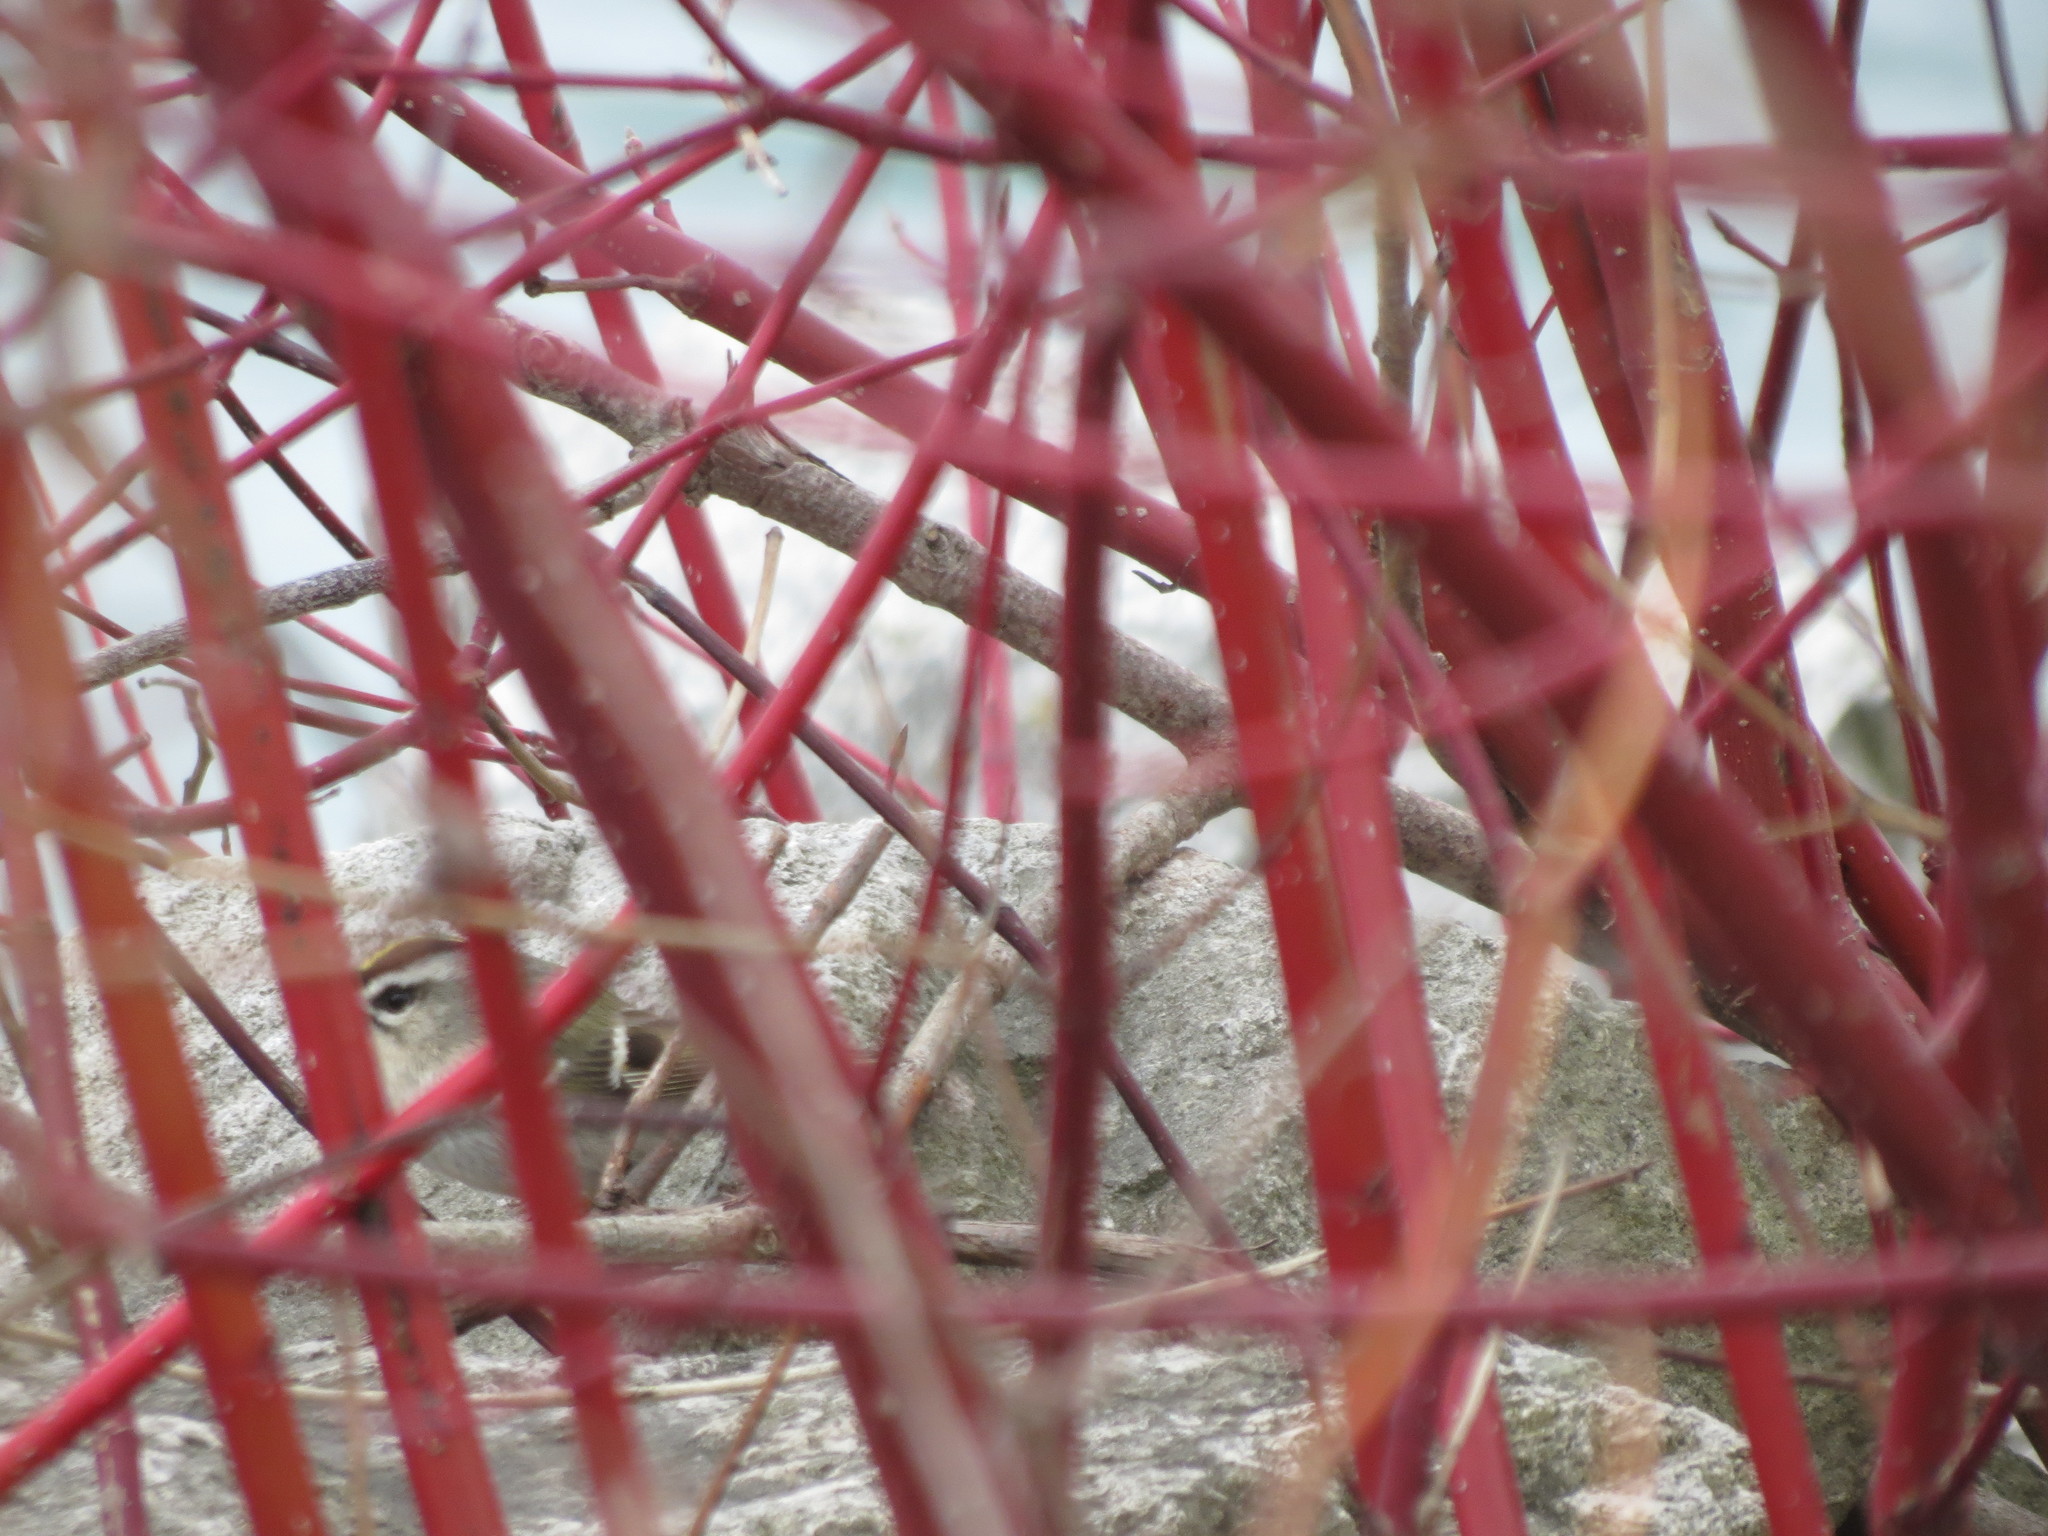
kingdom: Animalia
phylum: Chordata
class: Aves
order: Passeriformes
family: Regulidae
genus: Regulus
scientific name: Regulus satrapa
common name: Golden-crowned kinglet
